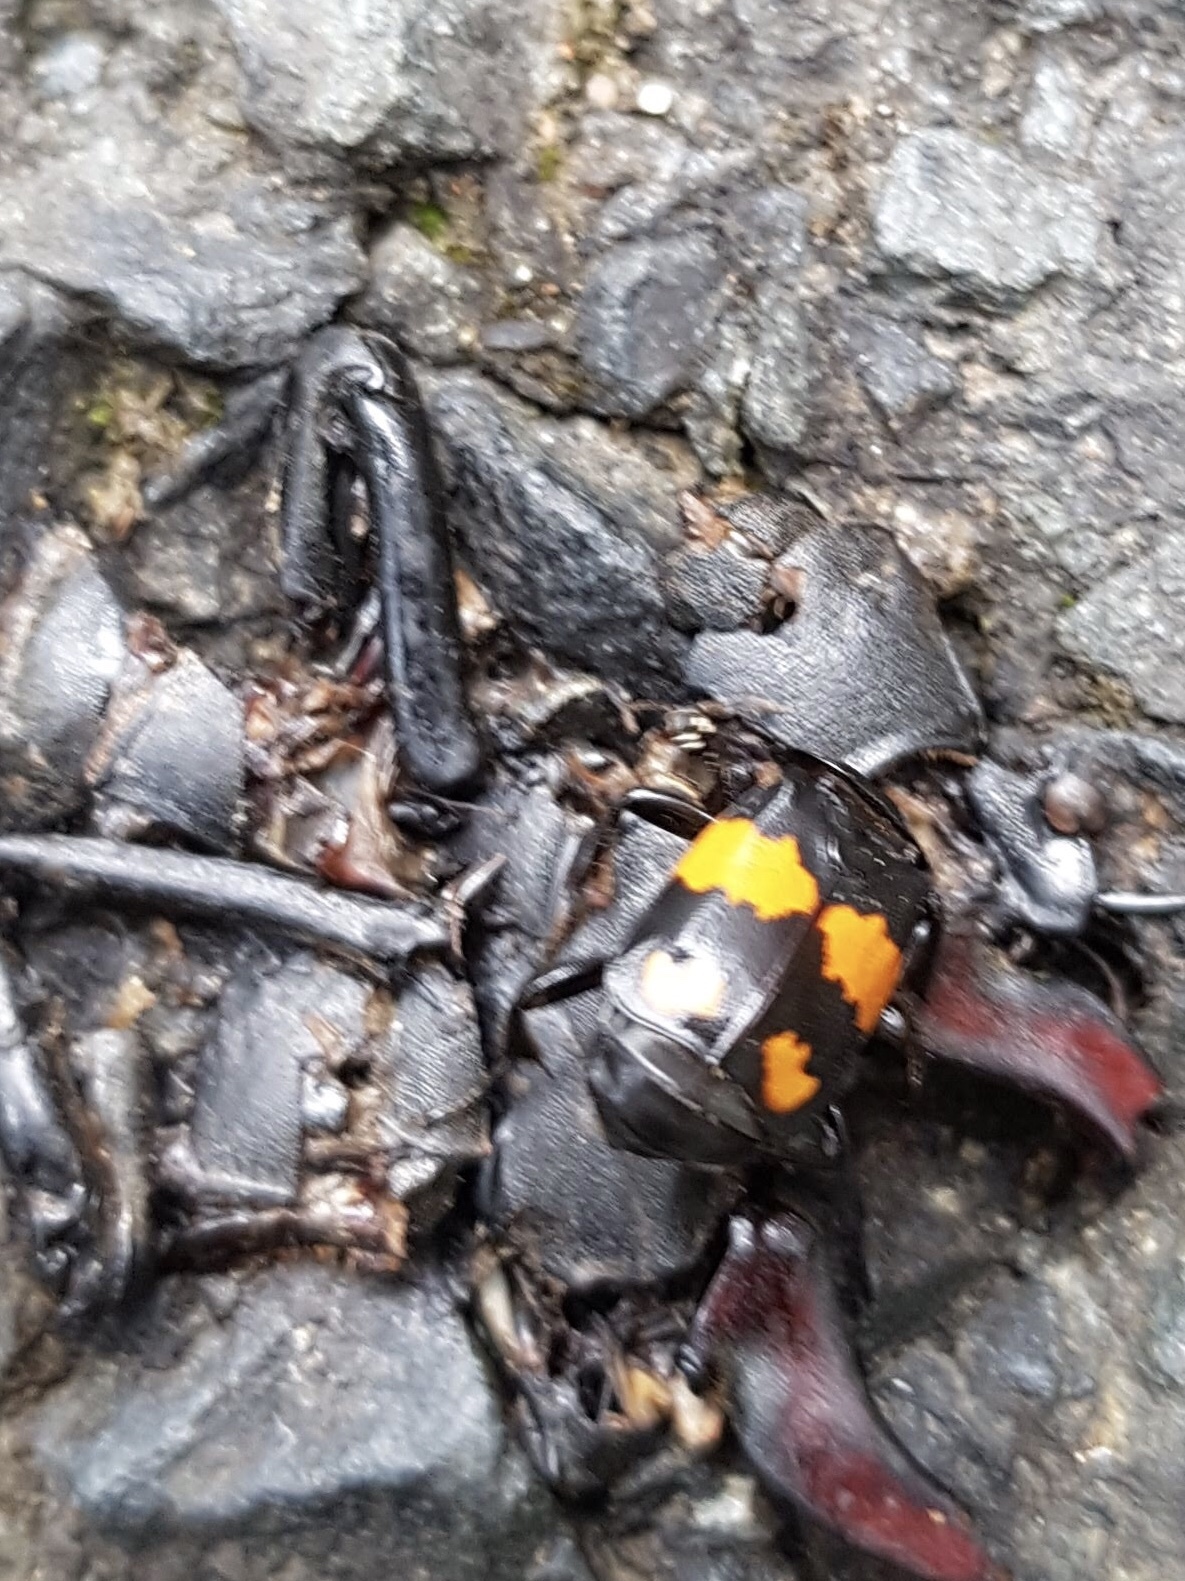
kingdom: Animalia
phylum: Arthropoda
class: Insecta
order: Coleoptera
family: Staphylinidae
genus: Nicrophorus
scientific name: Nicrophorus vespilloides
